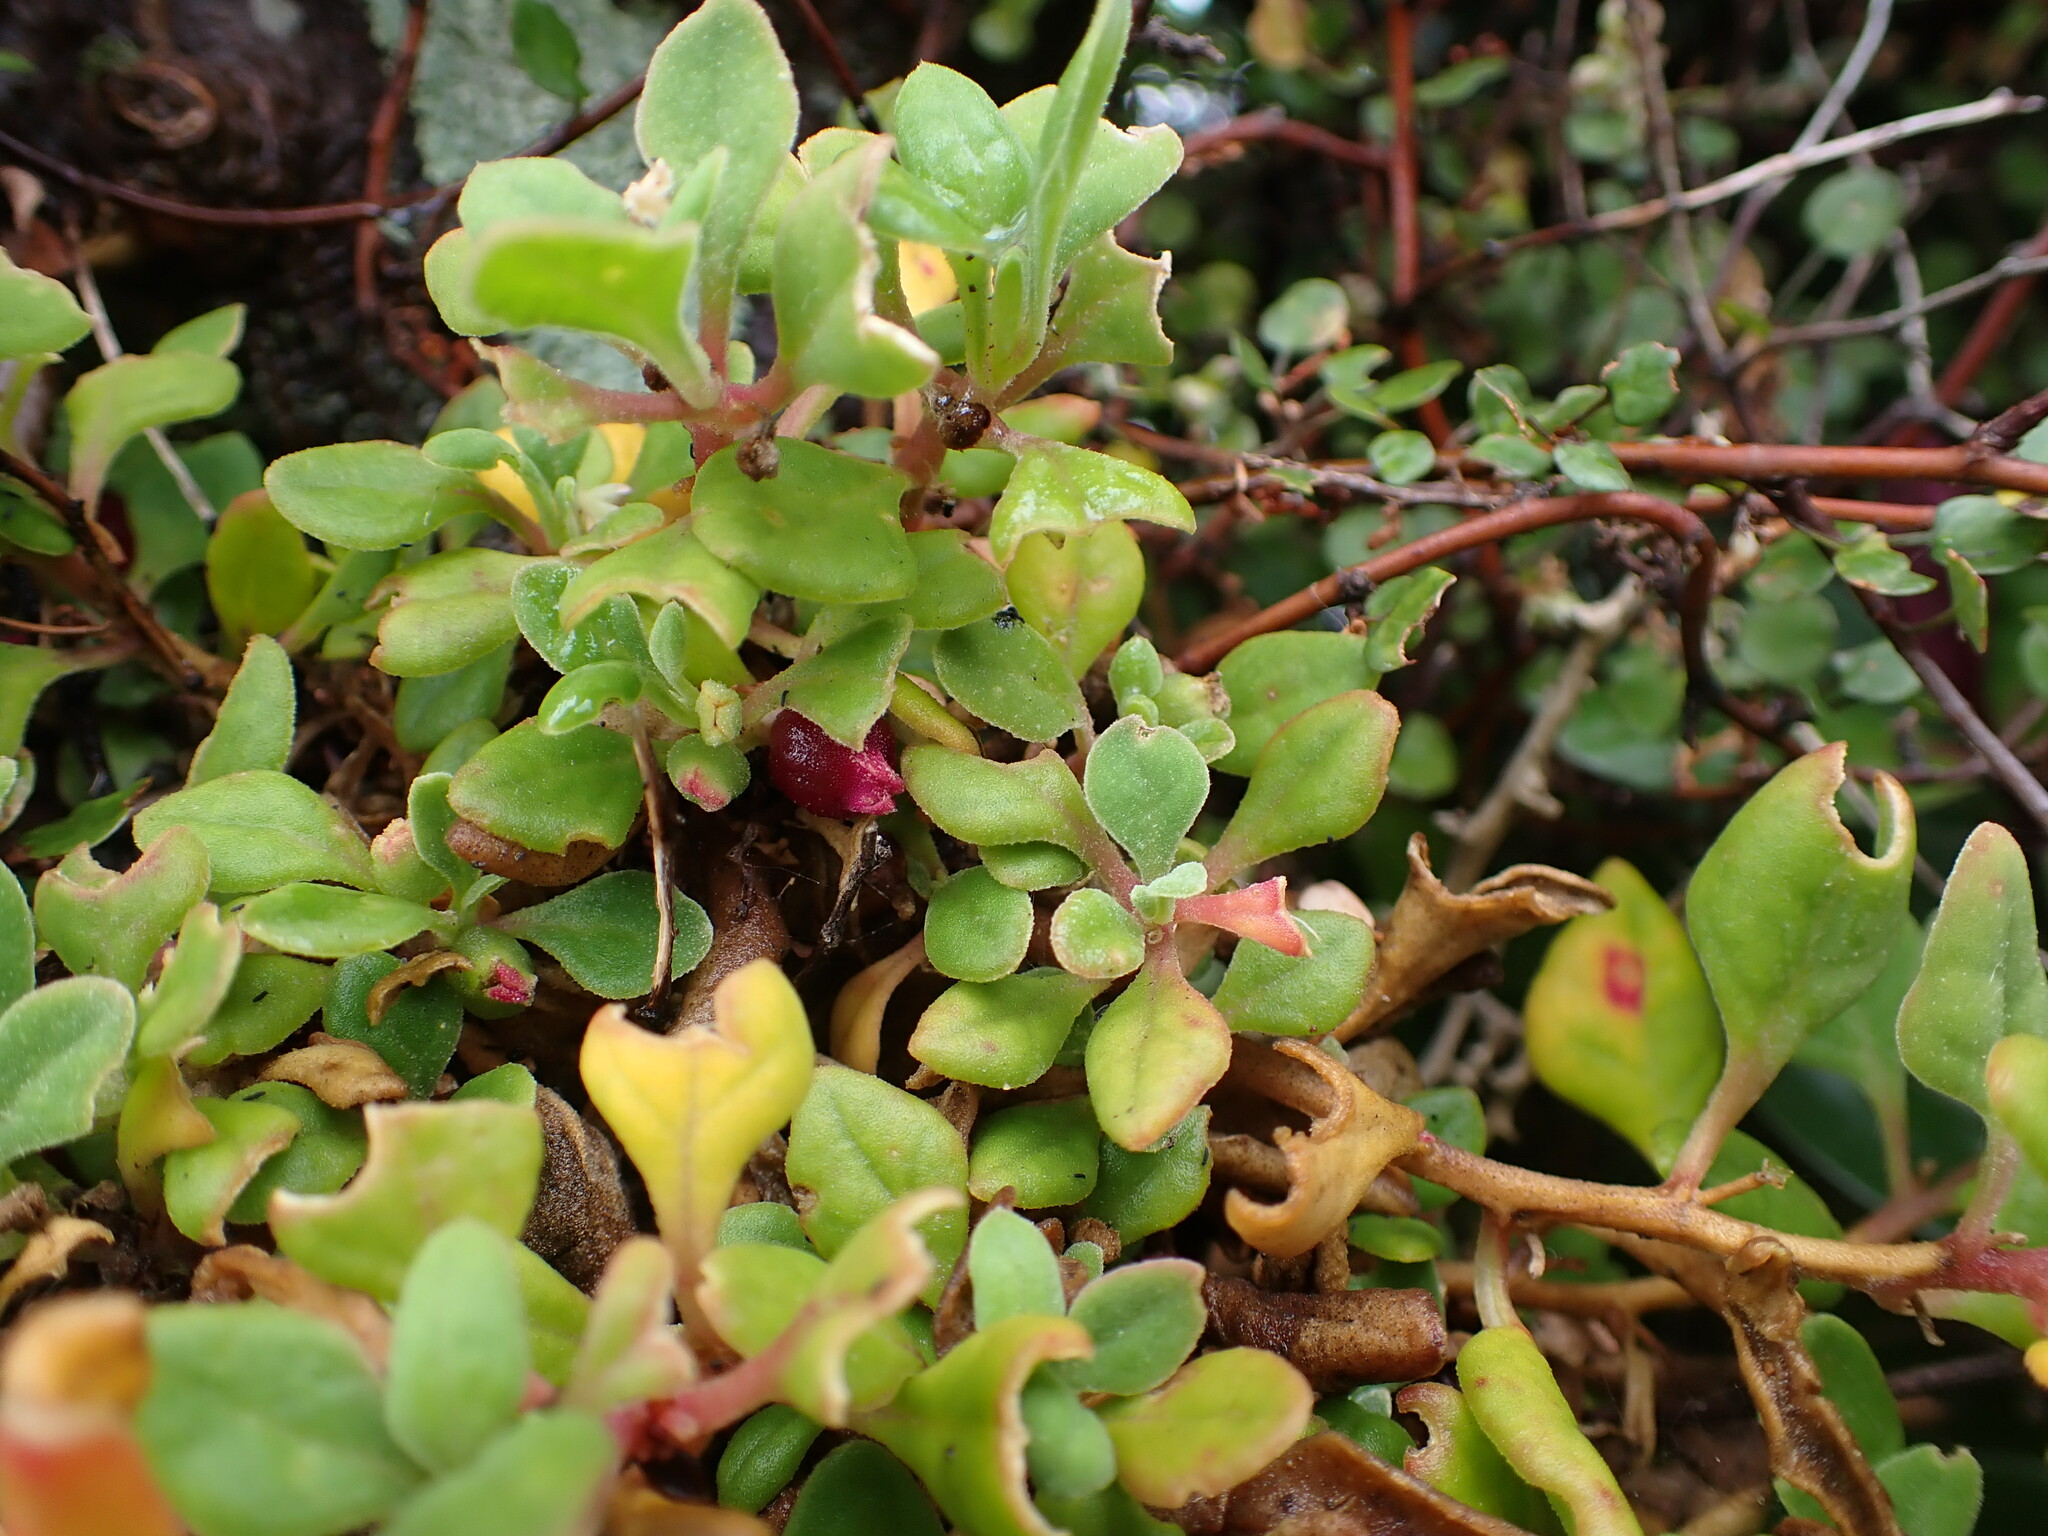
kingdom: Plantae
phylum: Tracheophyta
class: Magnoliopsida
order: Caryophyllales
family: Aizoaceae
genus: Tetragonia
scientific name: Tetragonia implexicoma
